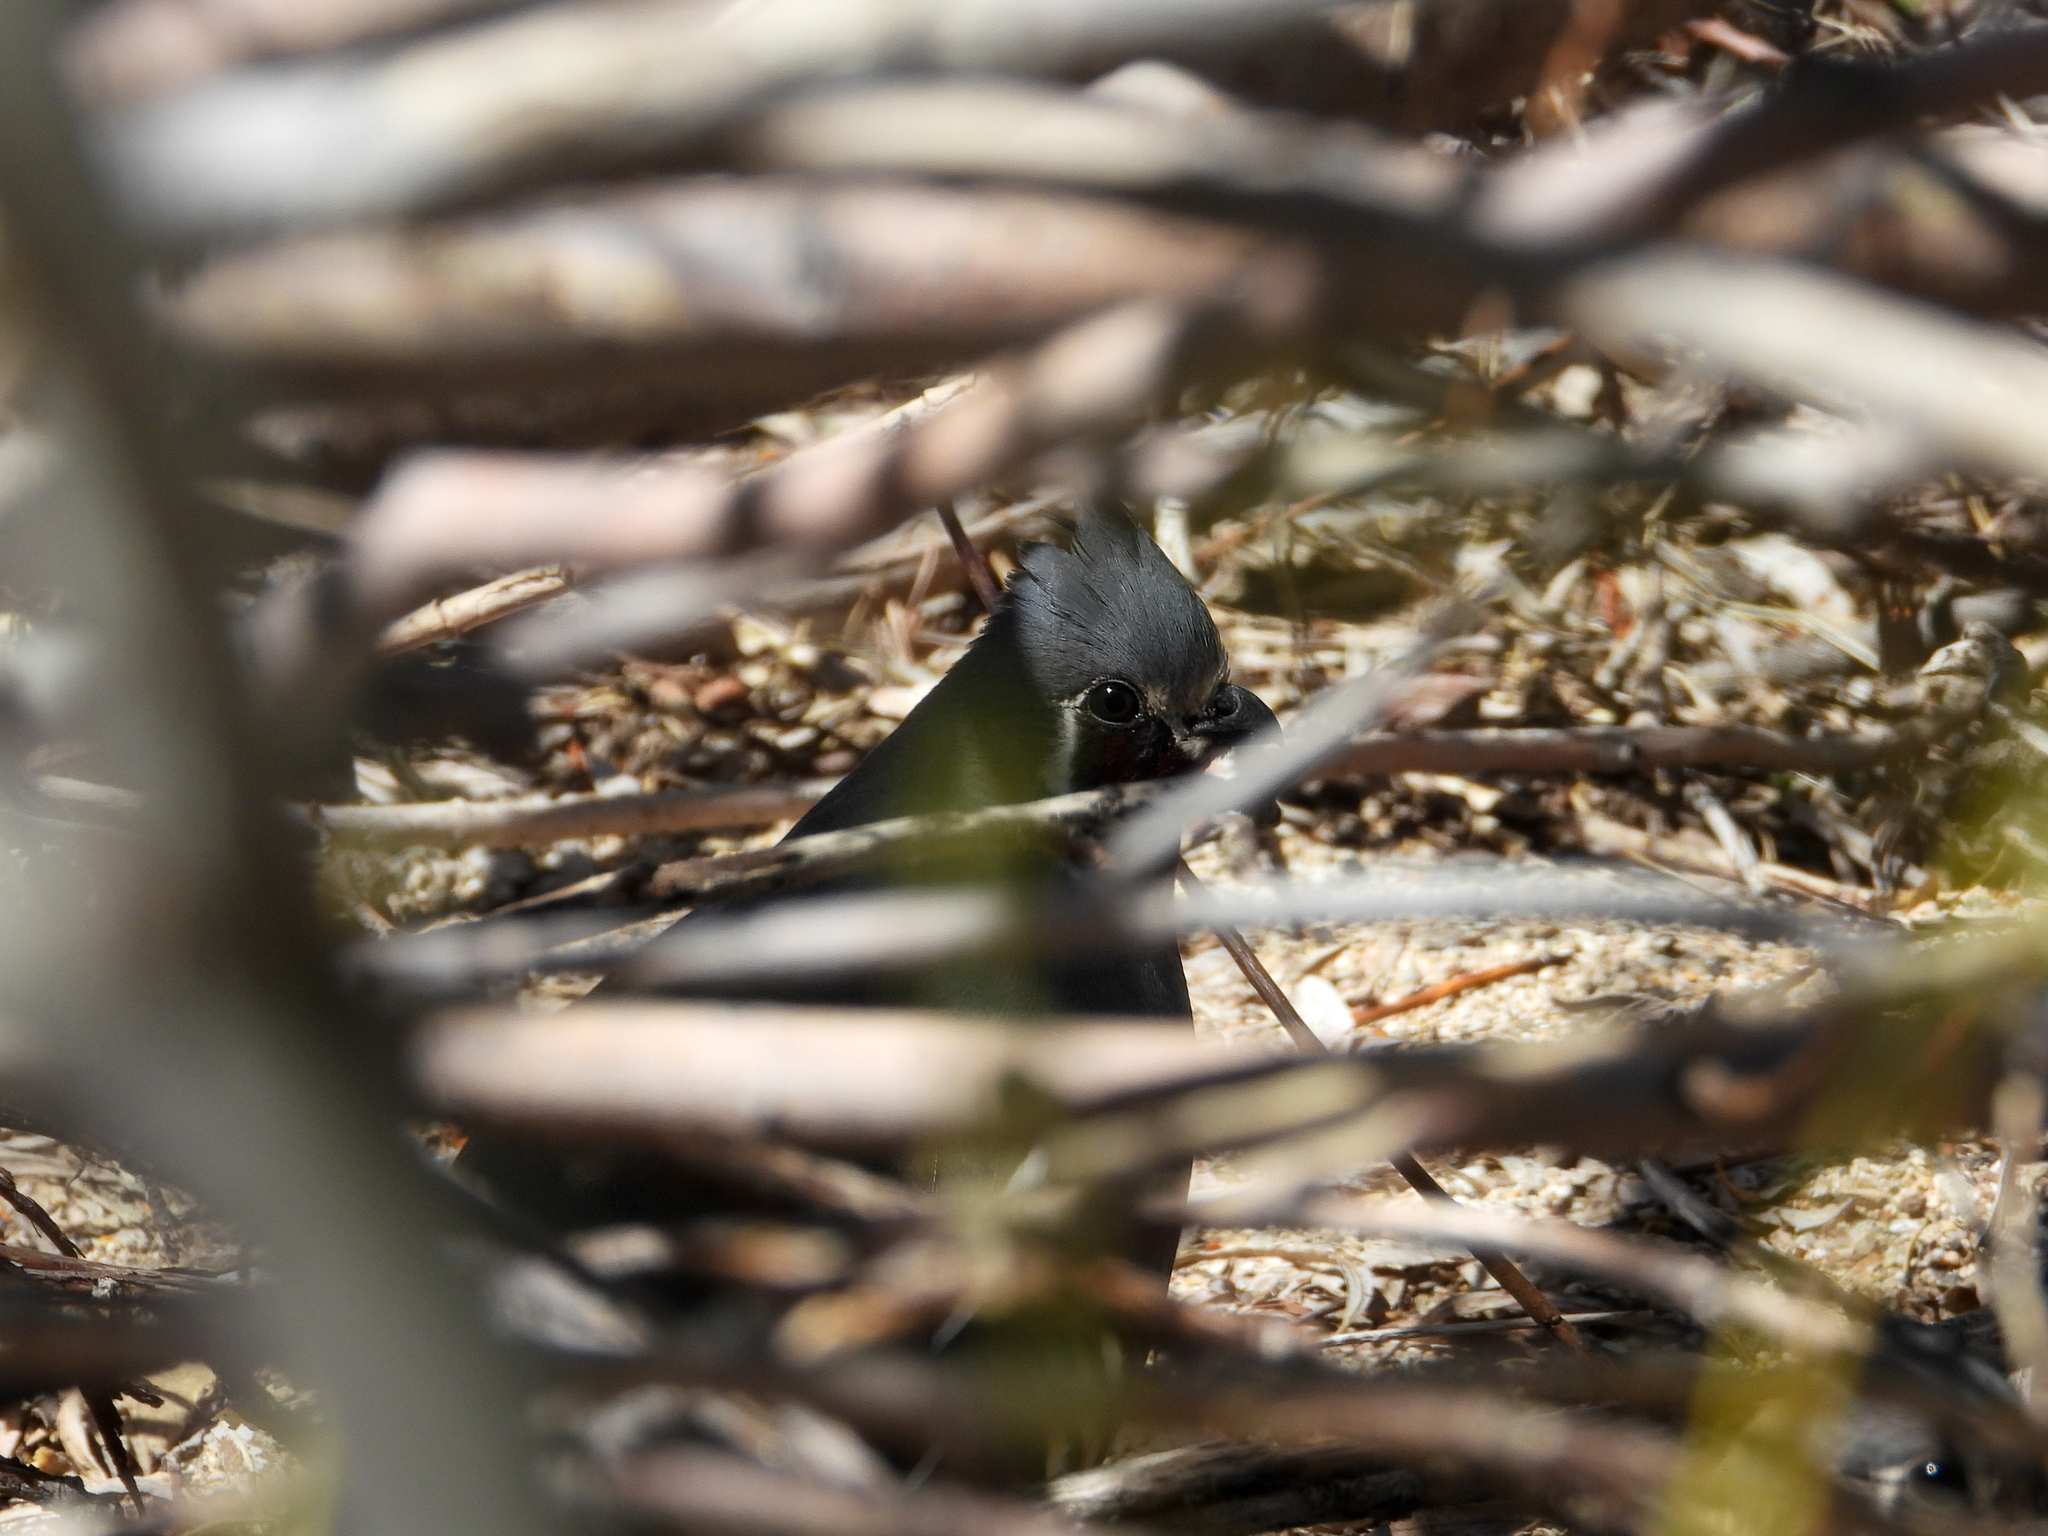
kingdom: Animalia
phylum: Chordata
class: Aves
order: Galliformes
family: Odontophoridae
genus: Oreortyx
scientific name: Oreortyx pictus
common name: Mountain quail
